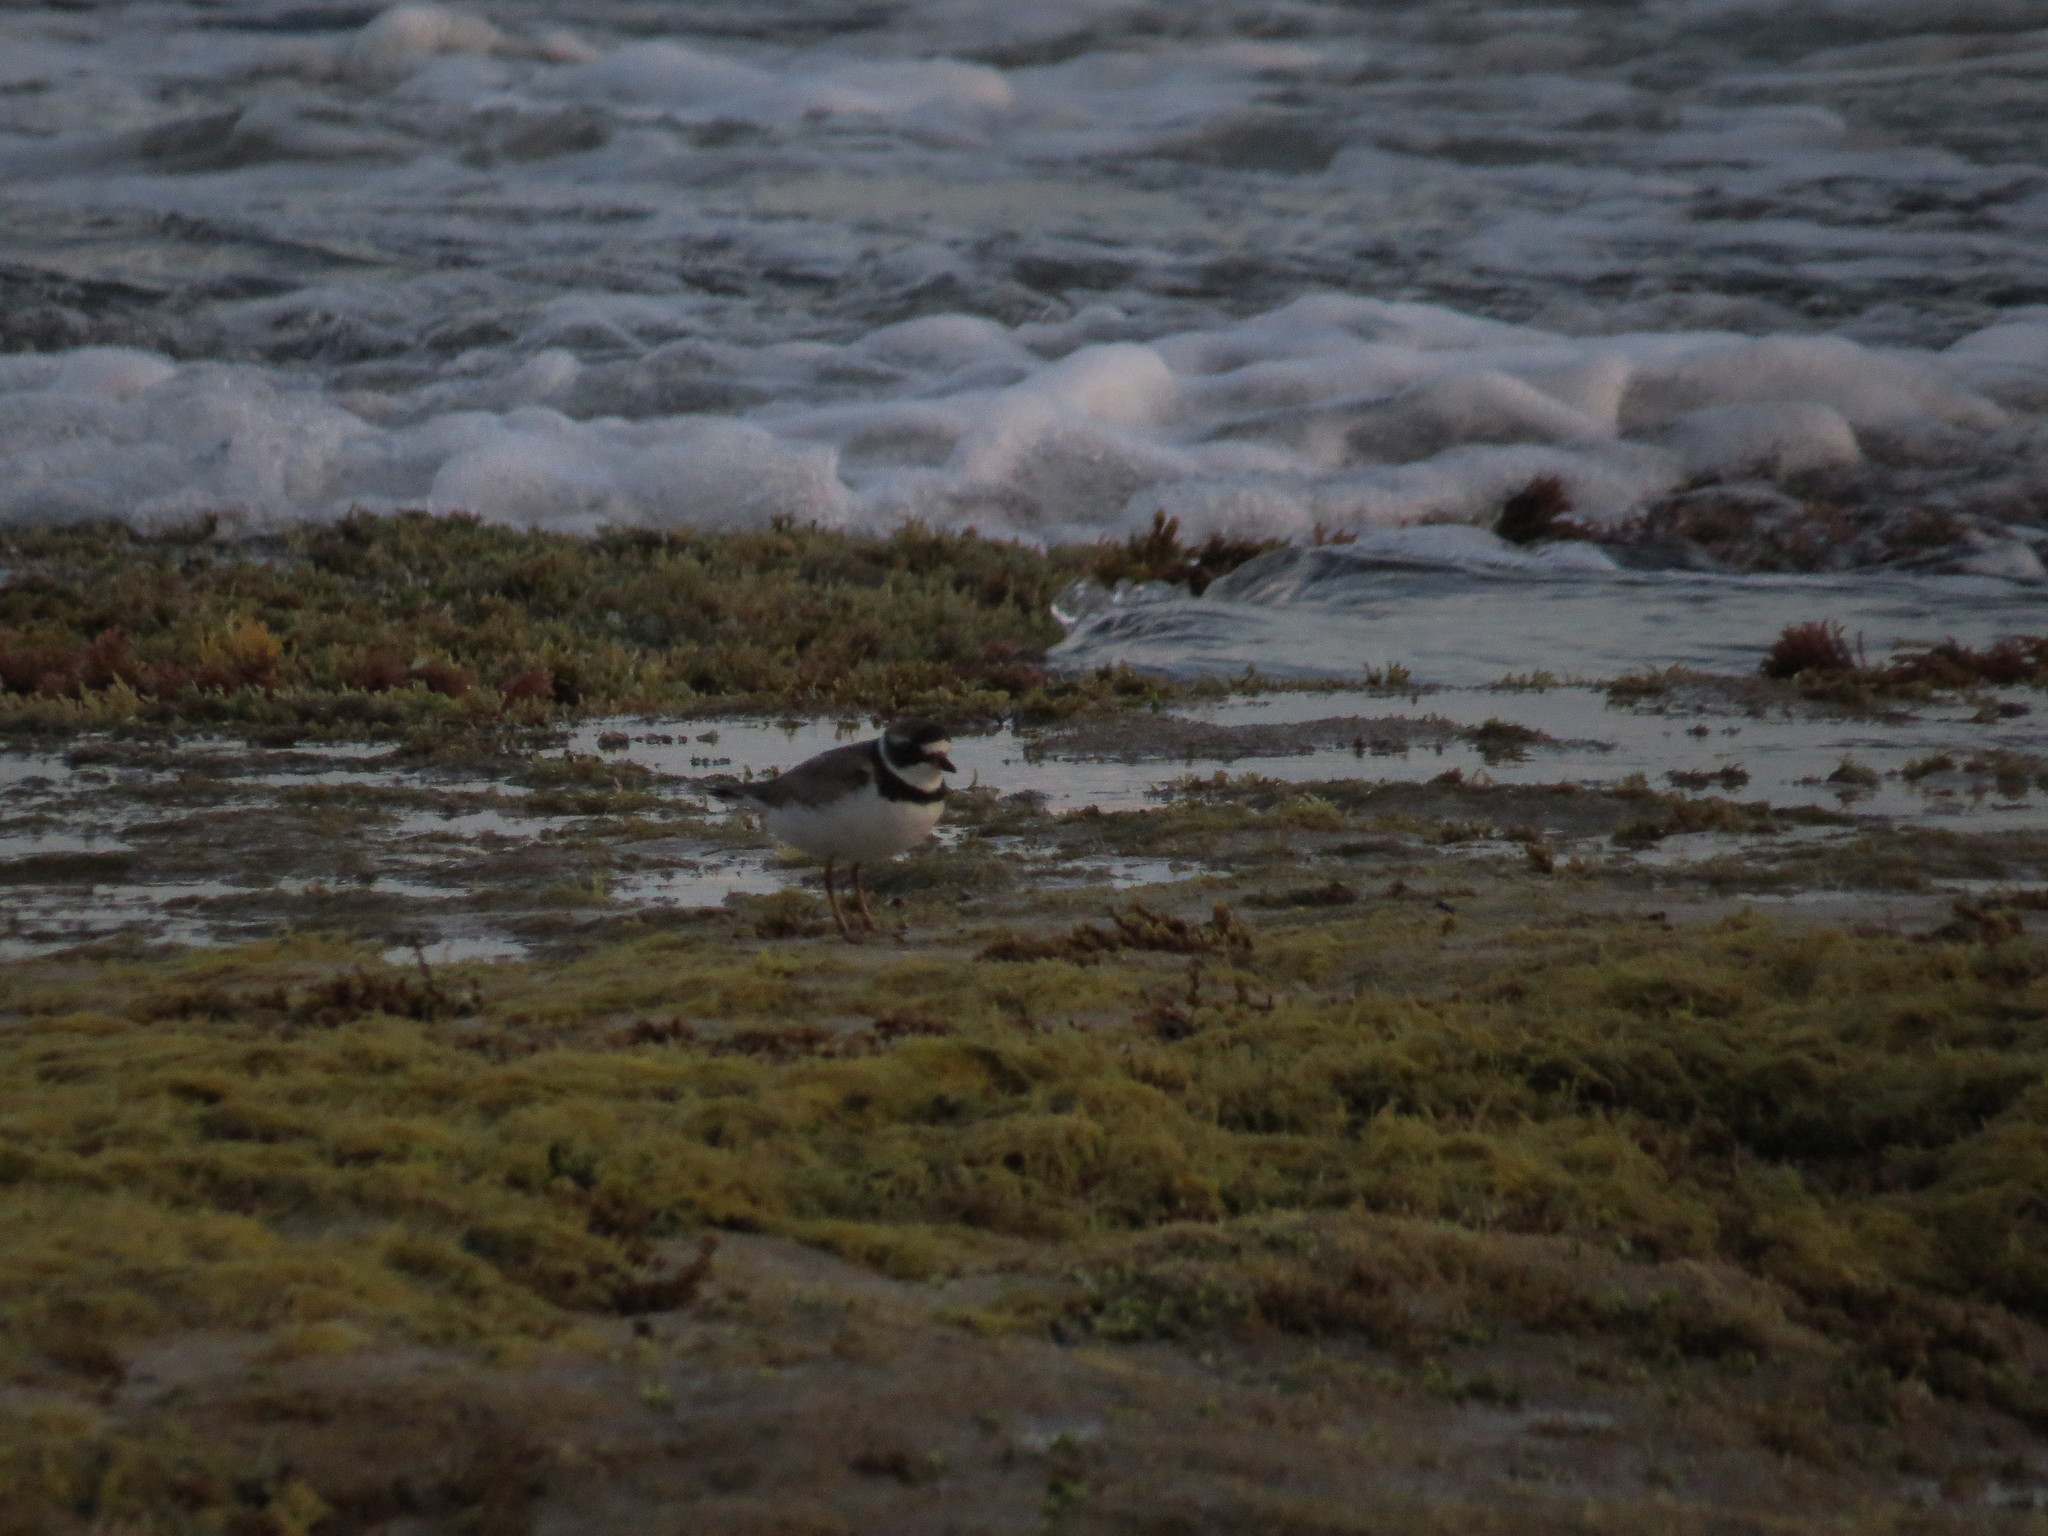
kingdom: Animalia
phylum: Chordata
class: Aves
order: Charadriiformes
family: Charadriidae
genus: Charadrius
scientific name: Charadrius semipalmatus
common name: Semipalmated plover
